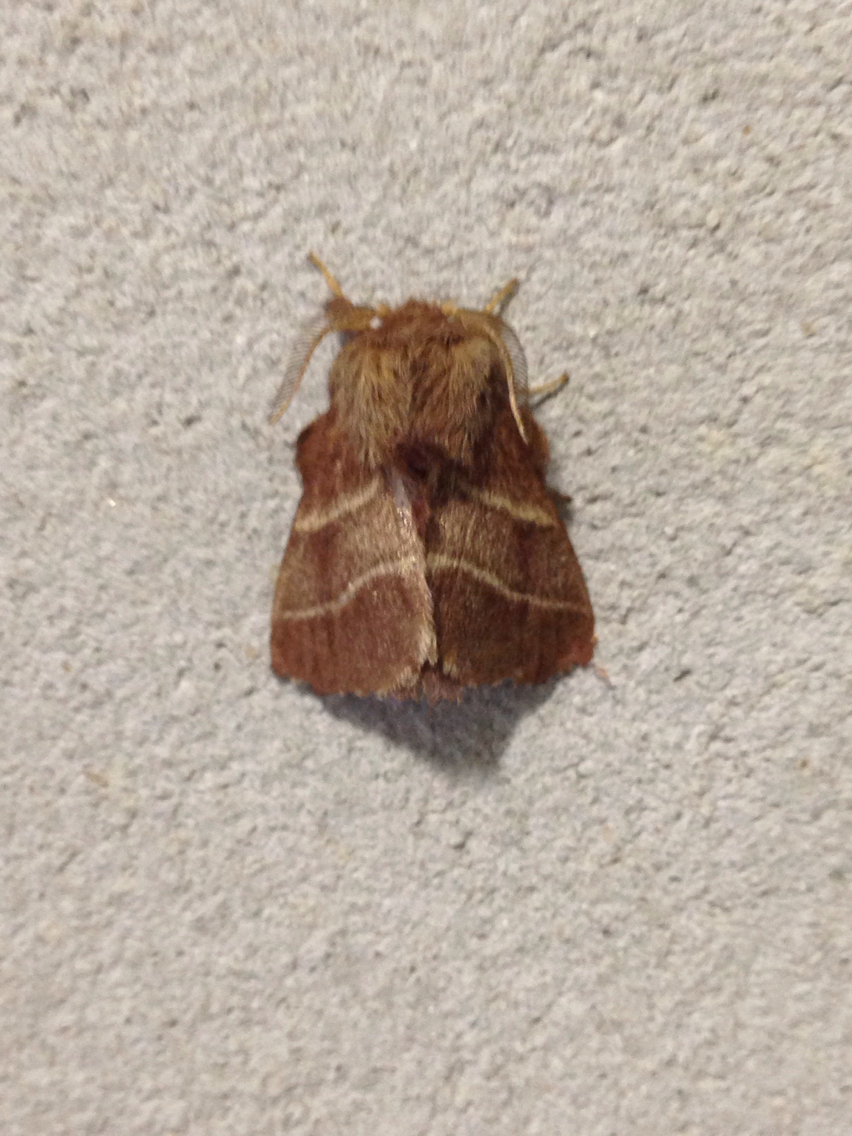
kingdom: Animalia
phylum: Arthropoda
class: Insecta
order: Lepidoptera
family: Lasiocampidae
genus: Malacosoma
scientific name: Malacosoma americana
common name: Eastern tent caterpillar moth
